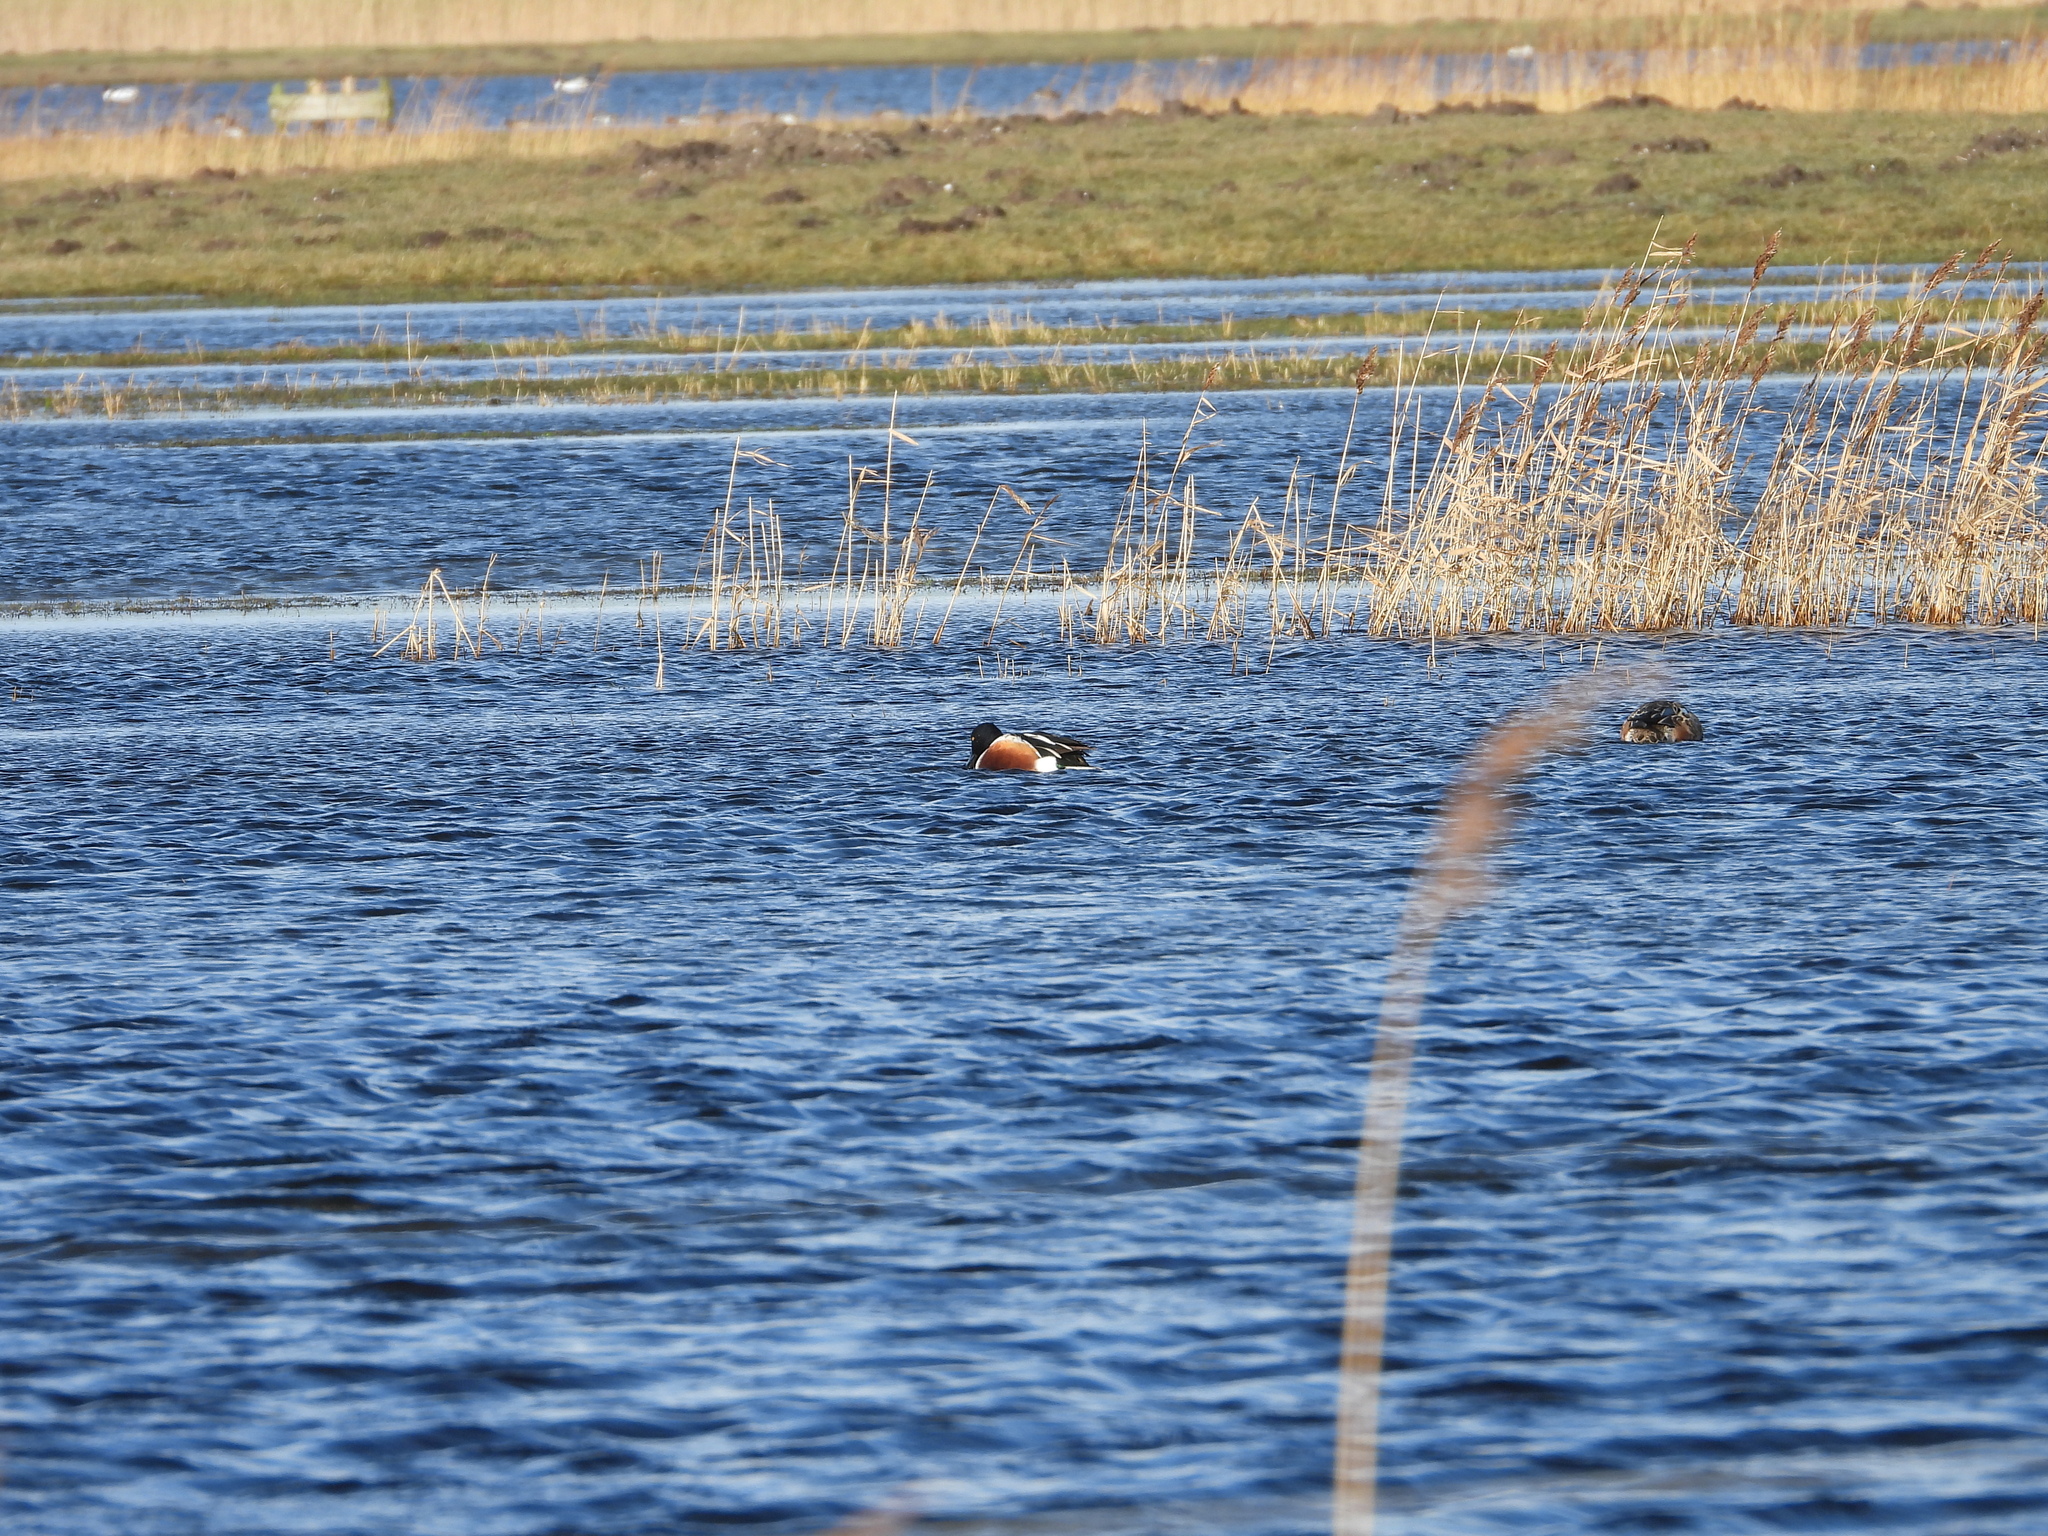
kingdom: Animalia
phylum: Chordata
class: Aves
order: Anseriformes
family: Anatidae
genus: Spatula
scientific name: Spatula clypeata
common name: Northern shoveler
